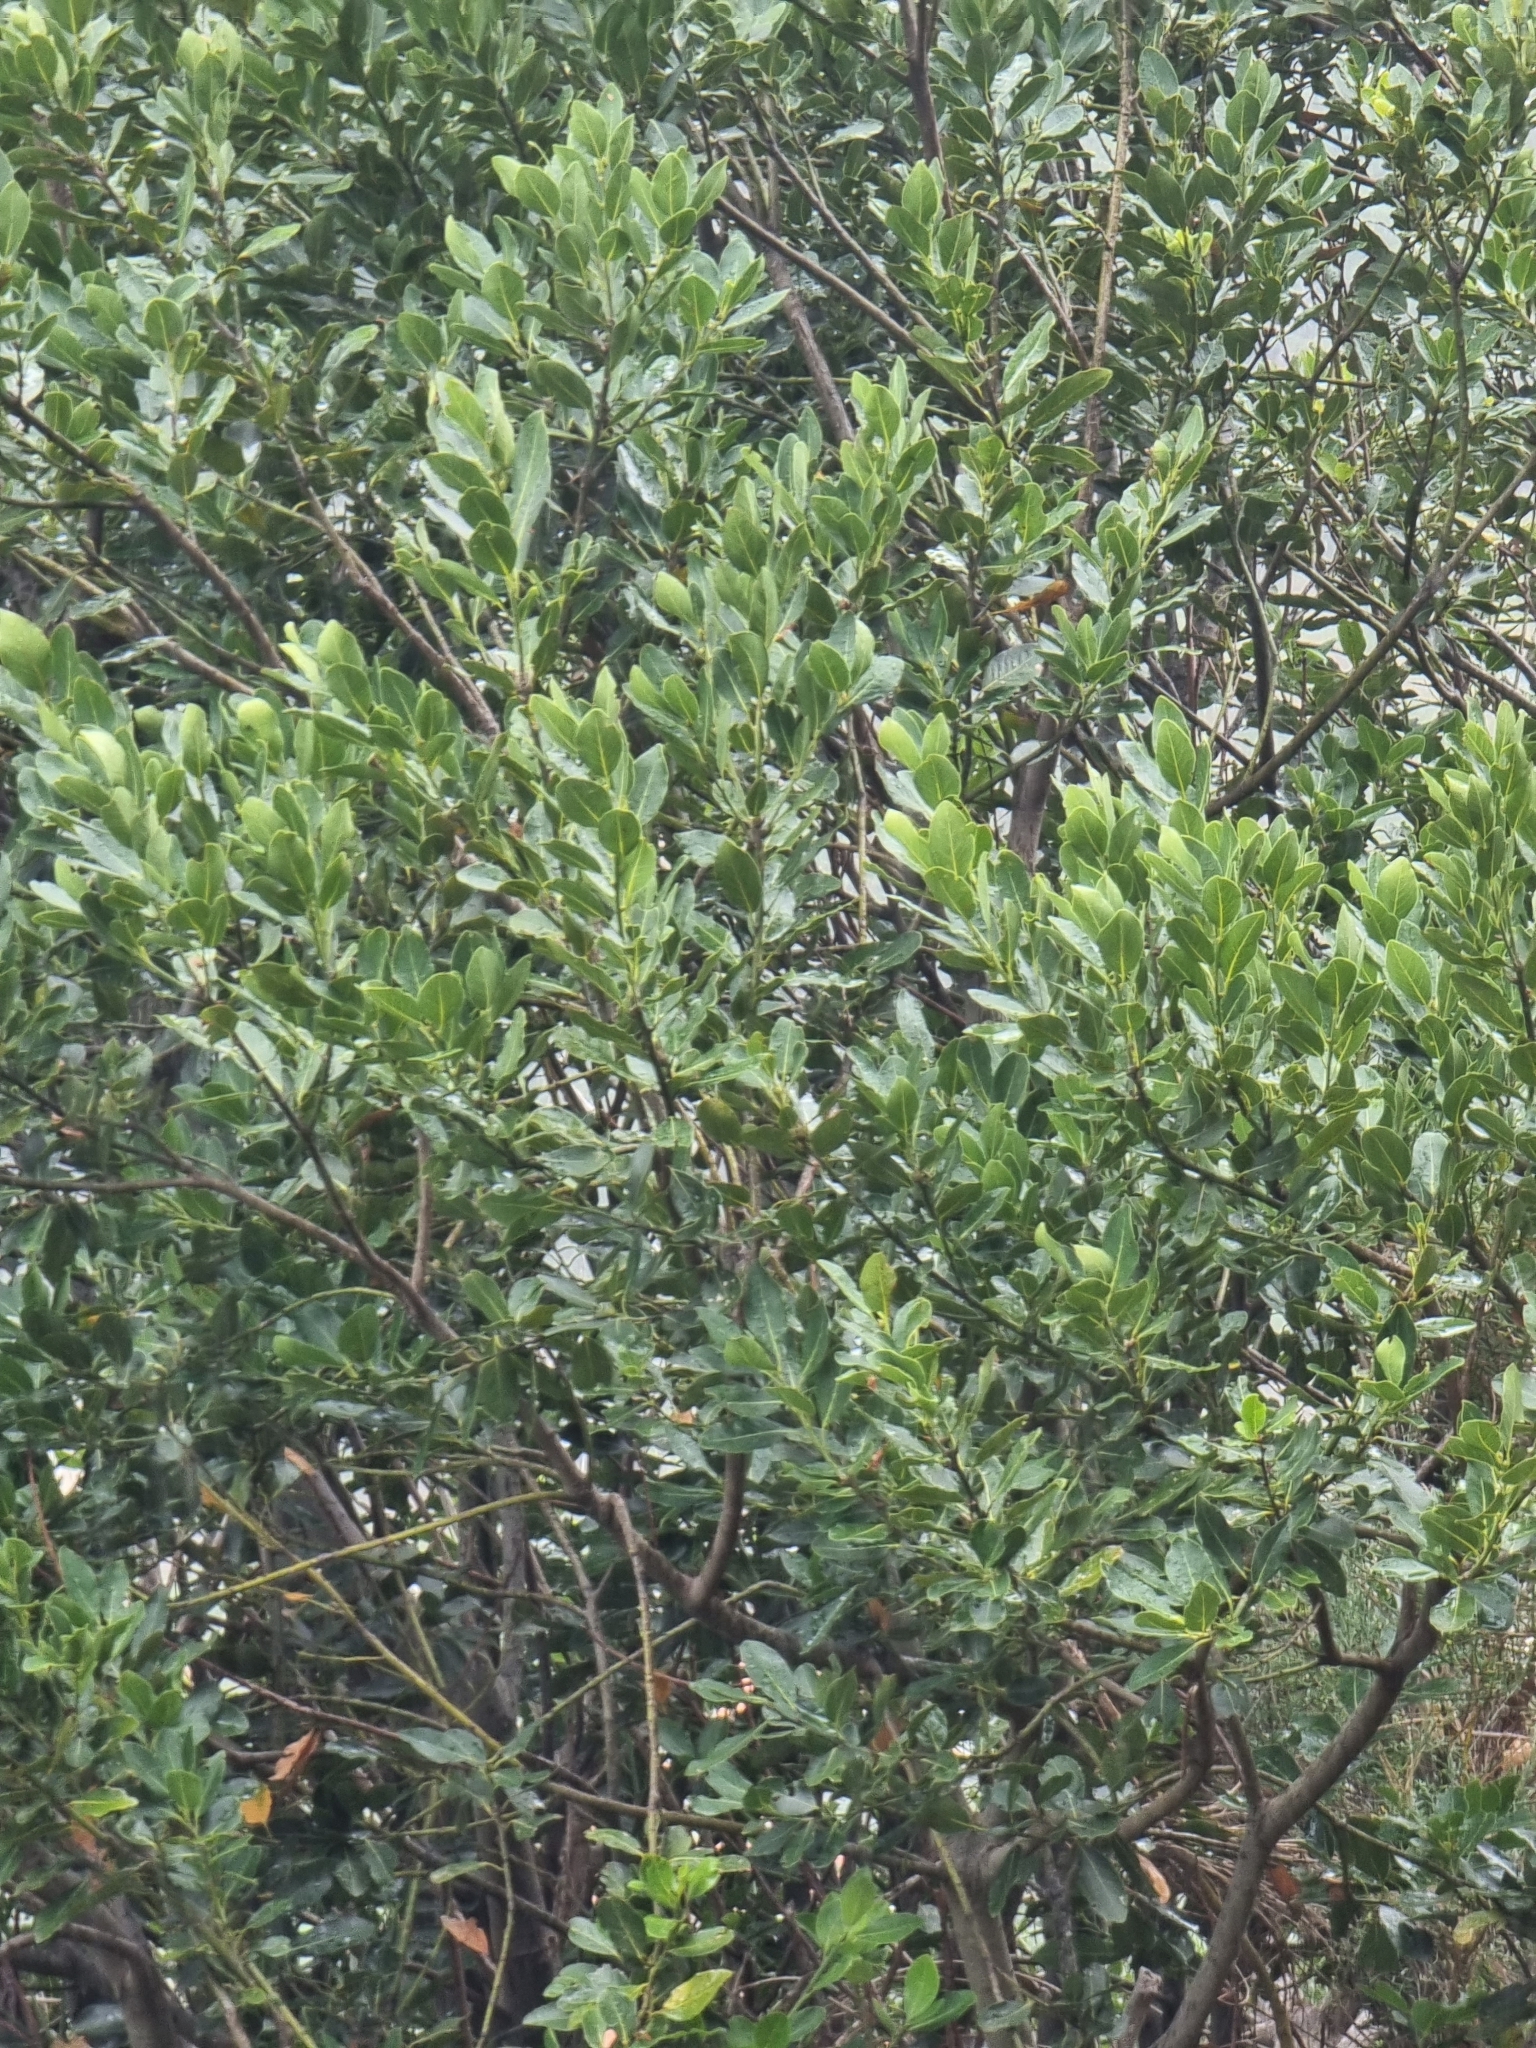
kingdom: Plantae
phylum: Tracheophyta
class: Magnoliopsida
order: Laurales
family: Lauraceae
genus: Laurus
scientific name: Laurus novocanariensis
